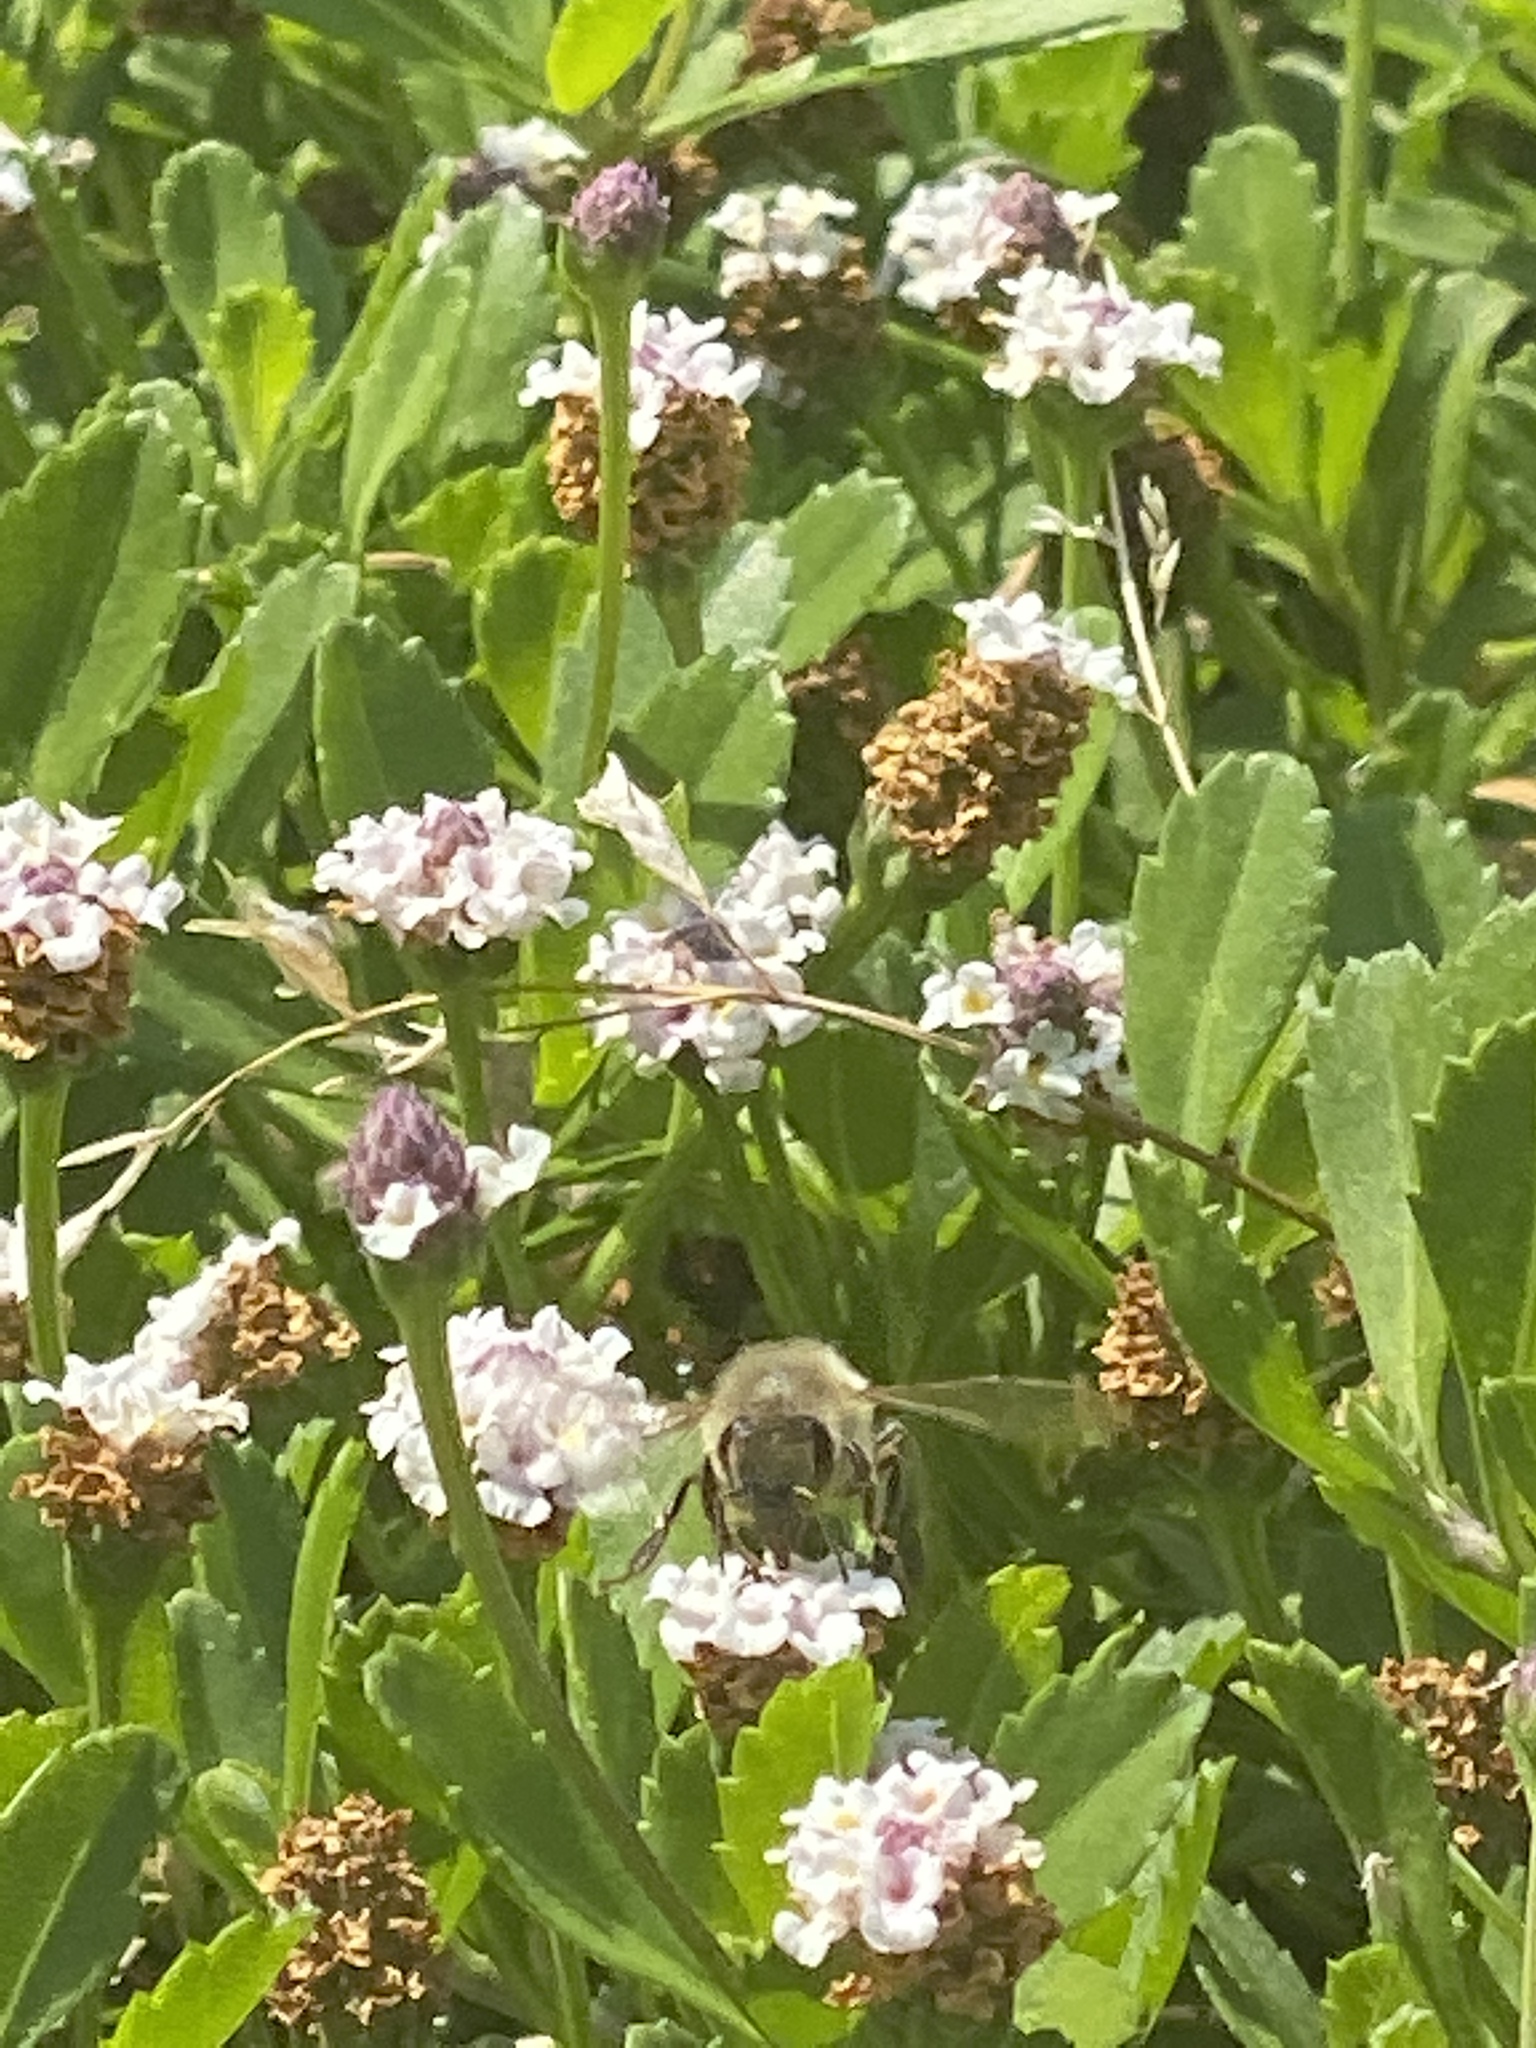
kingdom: Animalia
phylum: Arthropoda
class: Insecta
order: Hymenoptera
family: Apidae
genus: Apis
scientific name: Apis mellifera
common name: Honey bee
